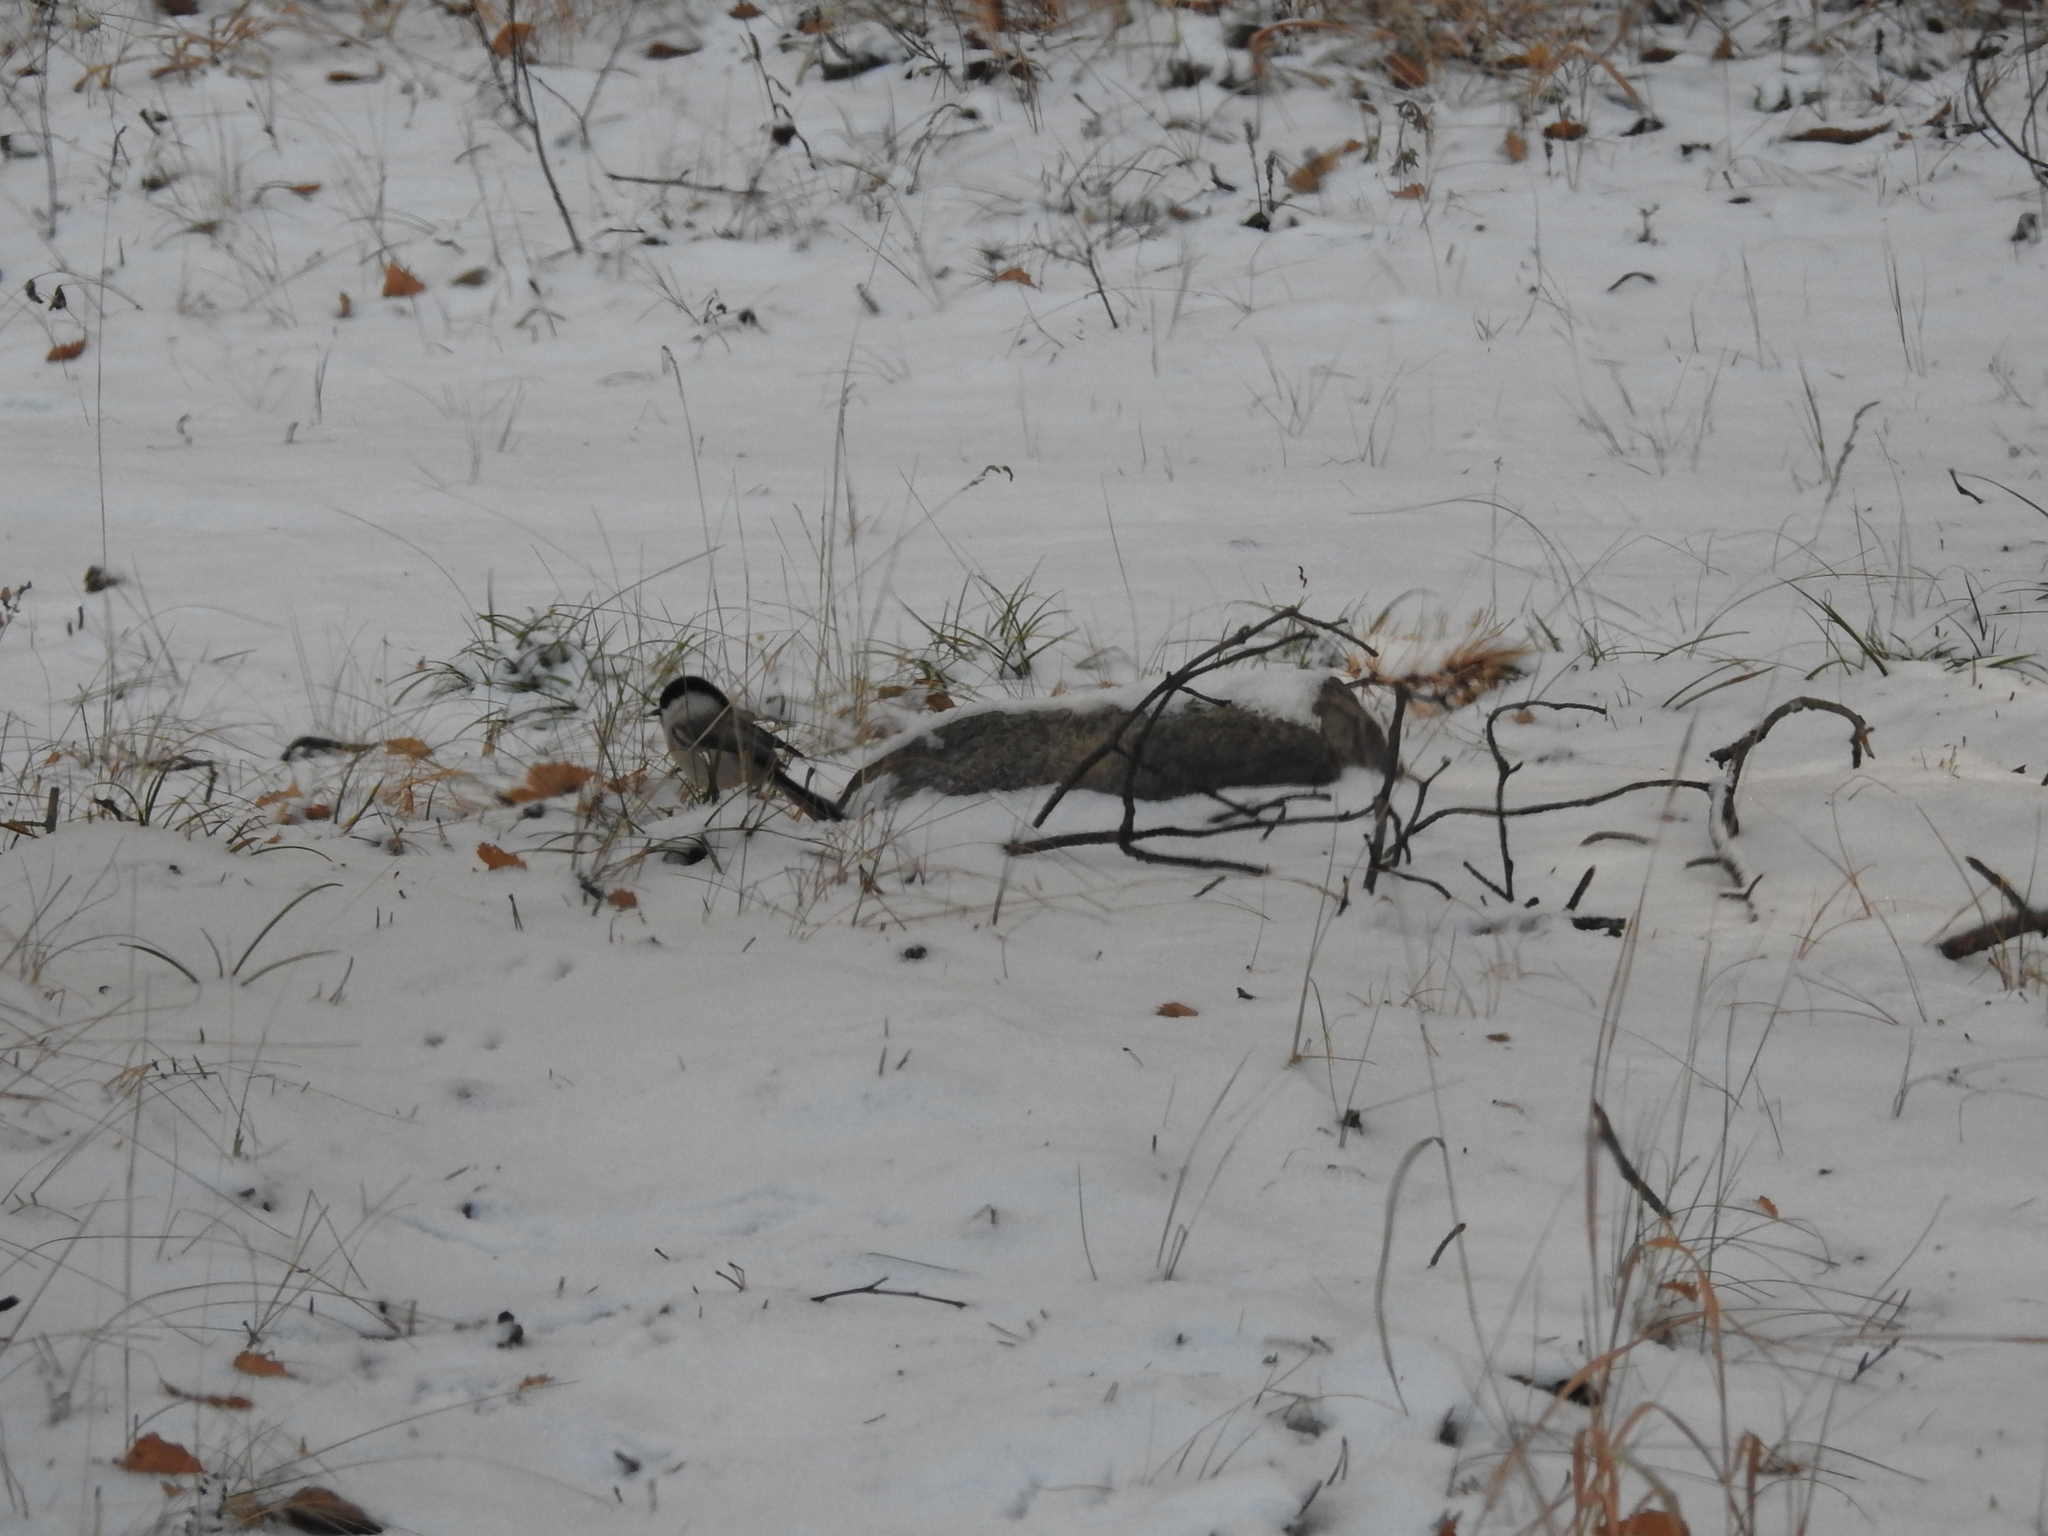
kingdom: Animalia
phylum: Chordata
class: Aves
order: Passeriformes
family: Paridae
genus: Poecile
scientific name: Poecile montanus
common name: Willow tit
